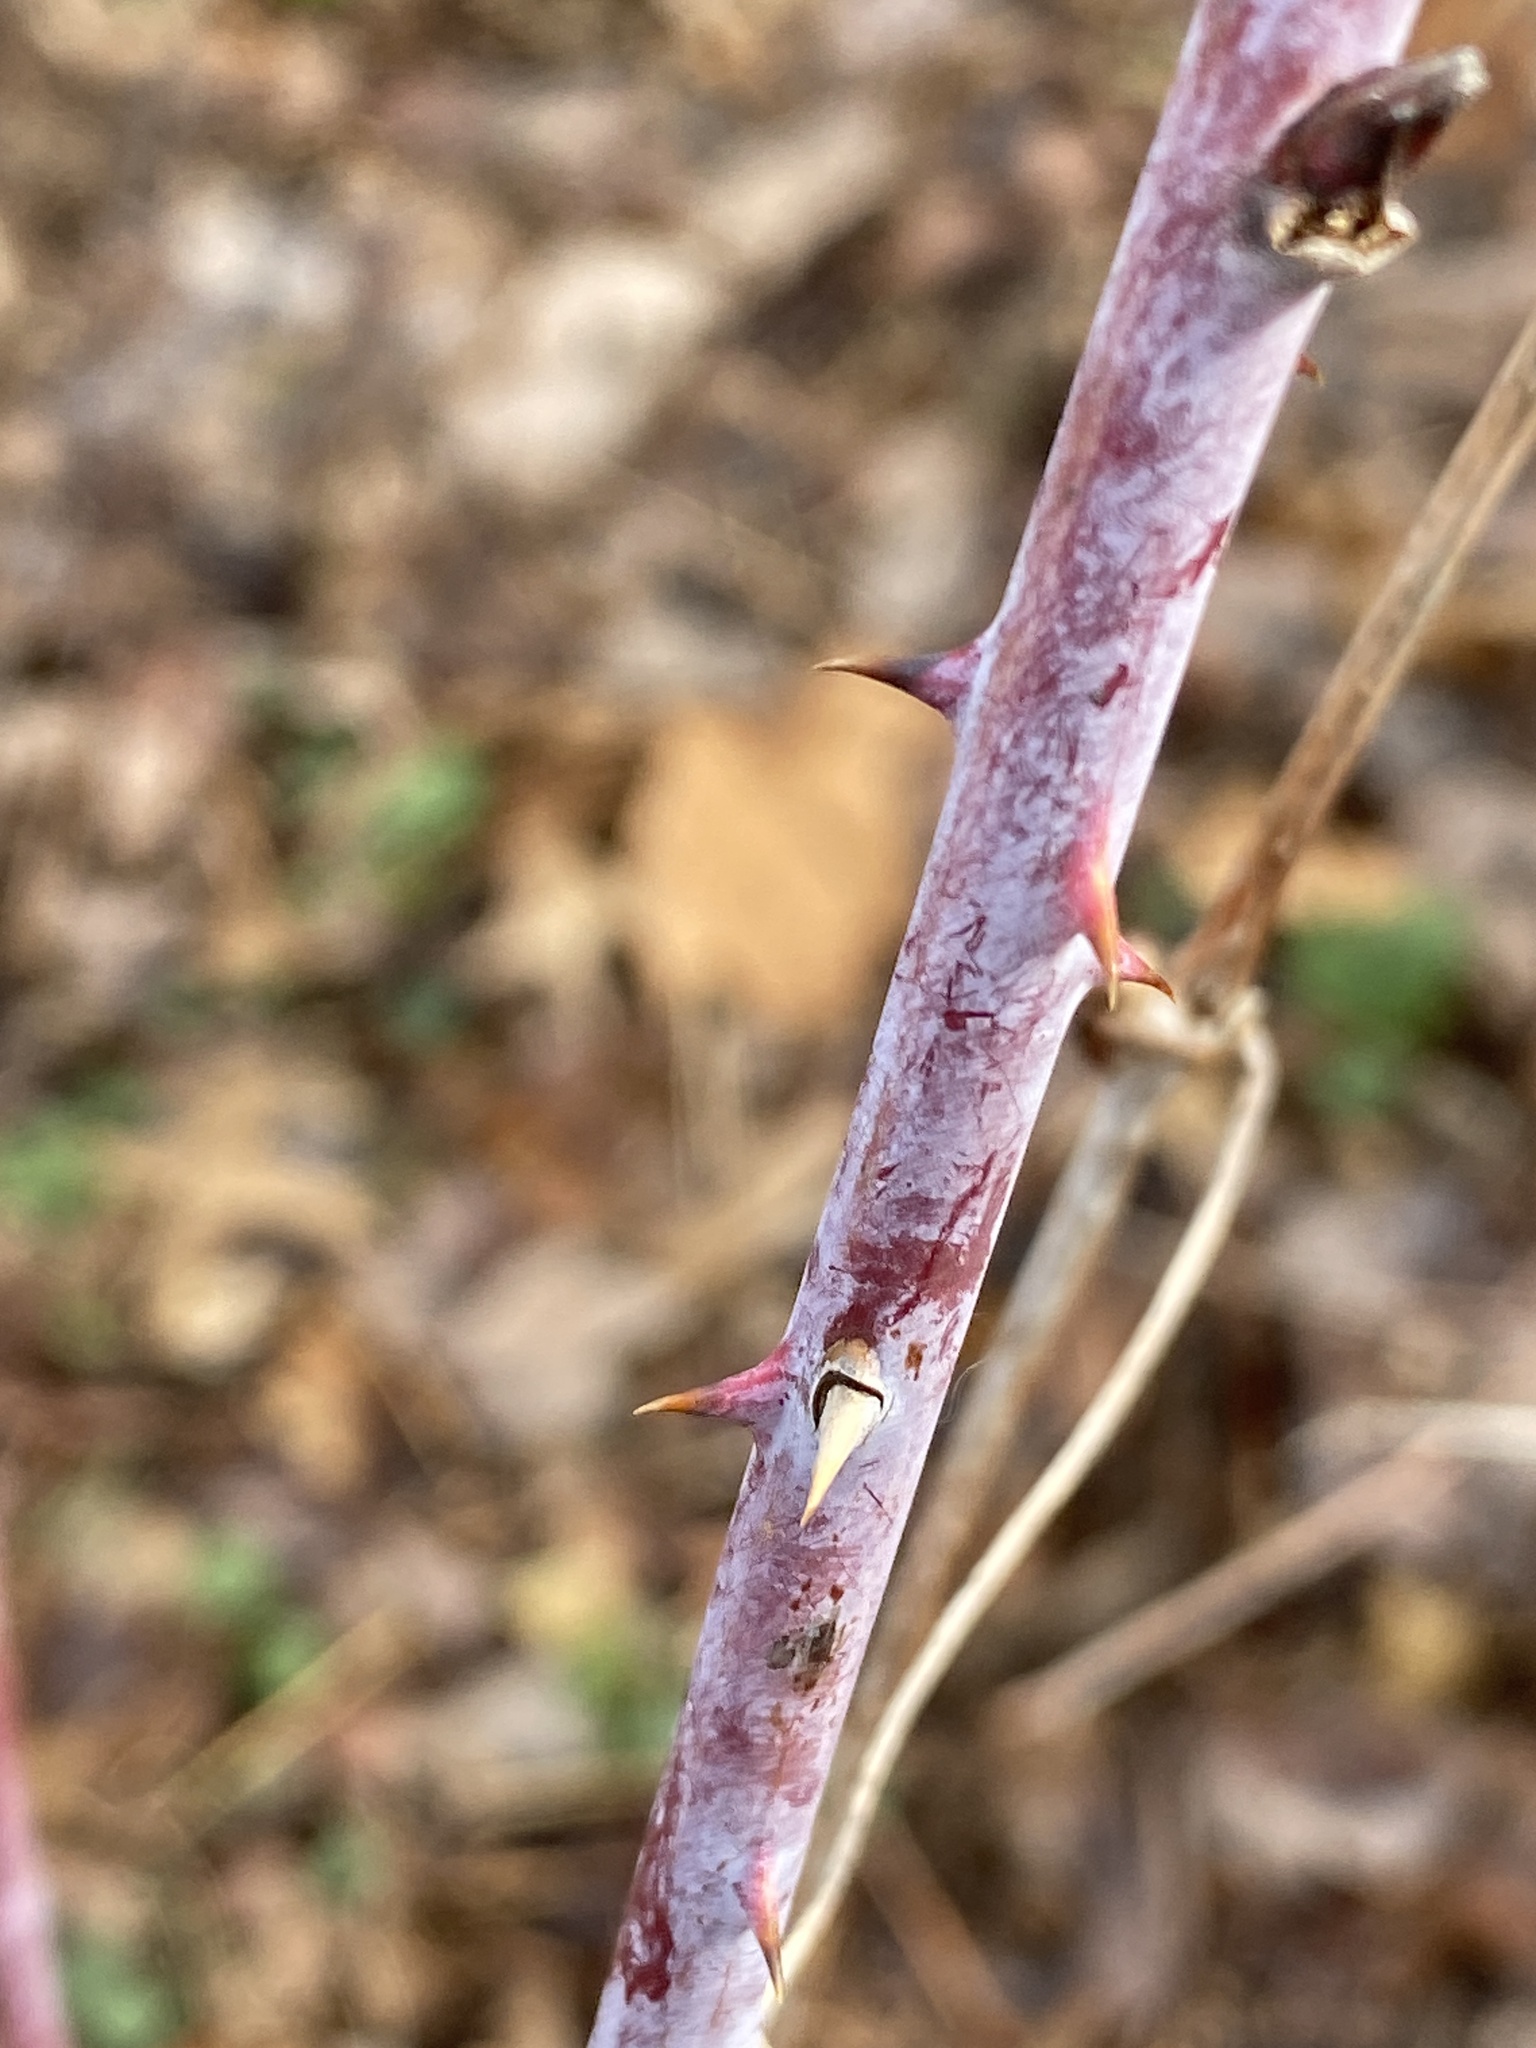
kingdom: Plantae
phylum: Tracheophyta
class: Magnoliopsida
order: Rosales
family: Rosaceae
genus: Rubus
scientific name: Rubus occidentalis
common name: Black raspberry
